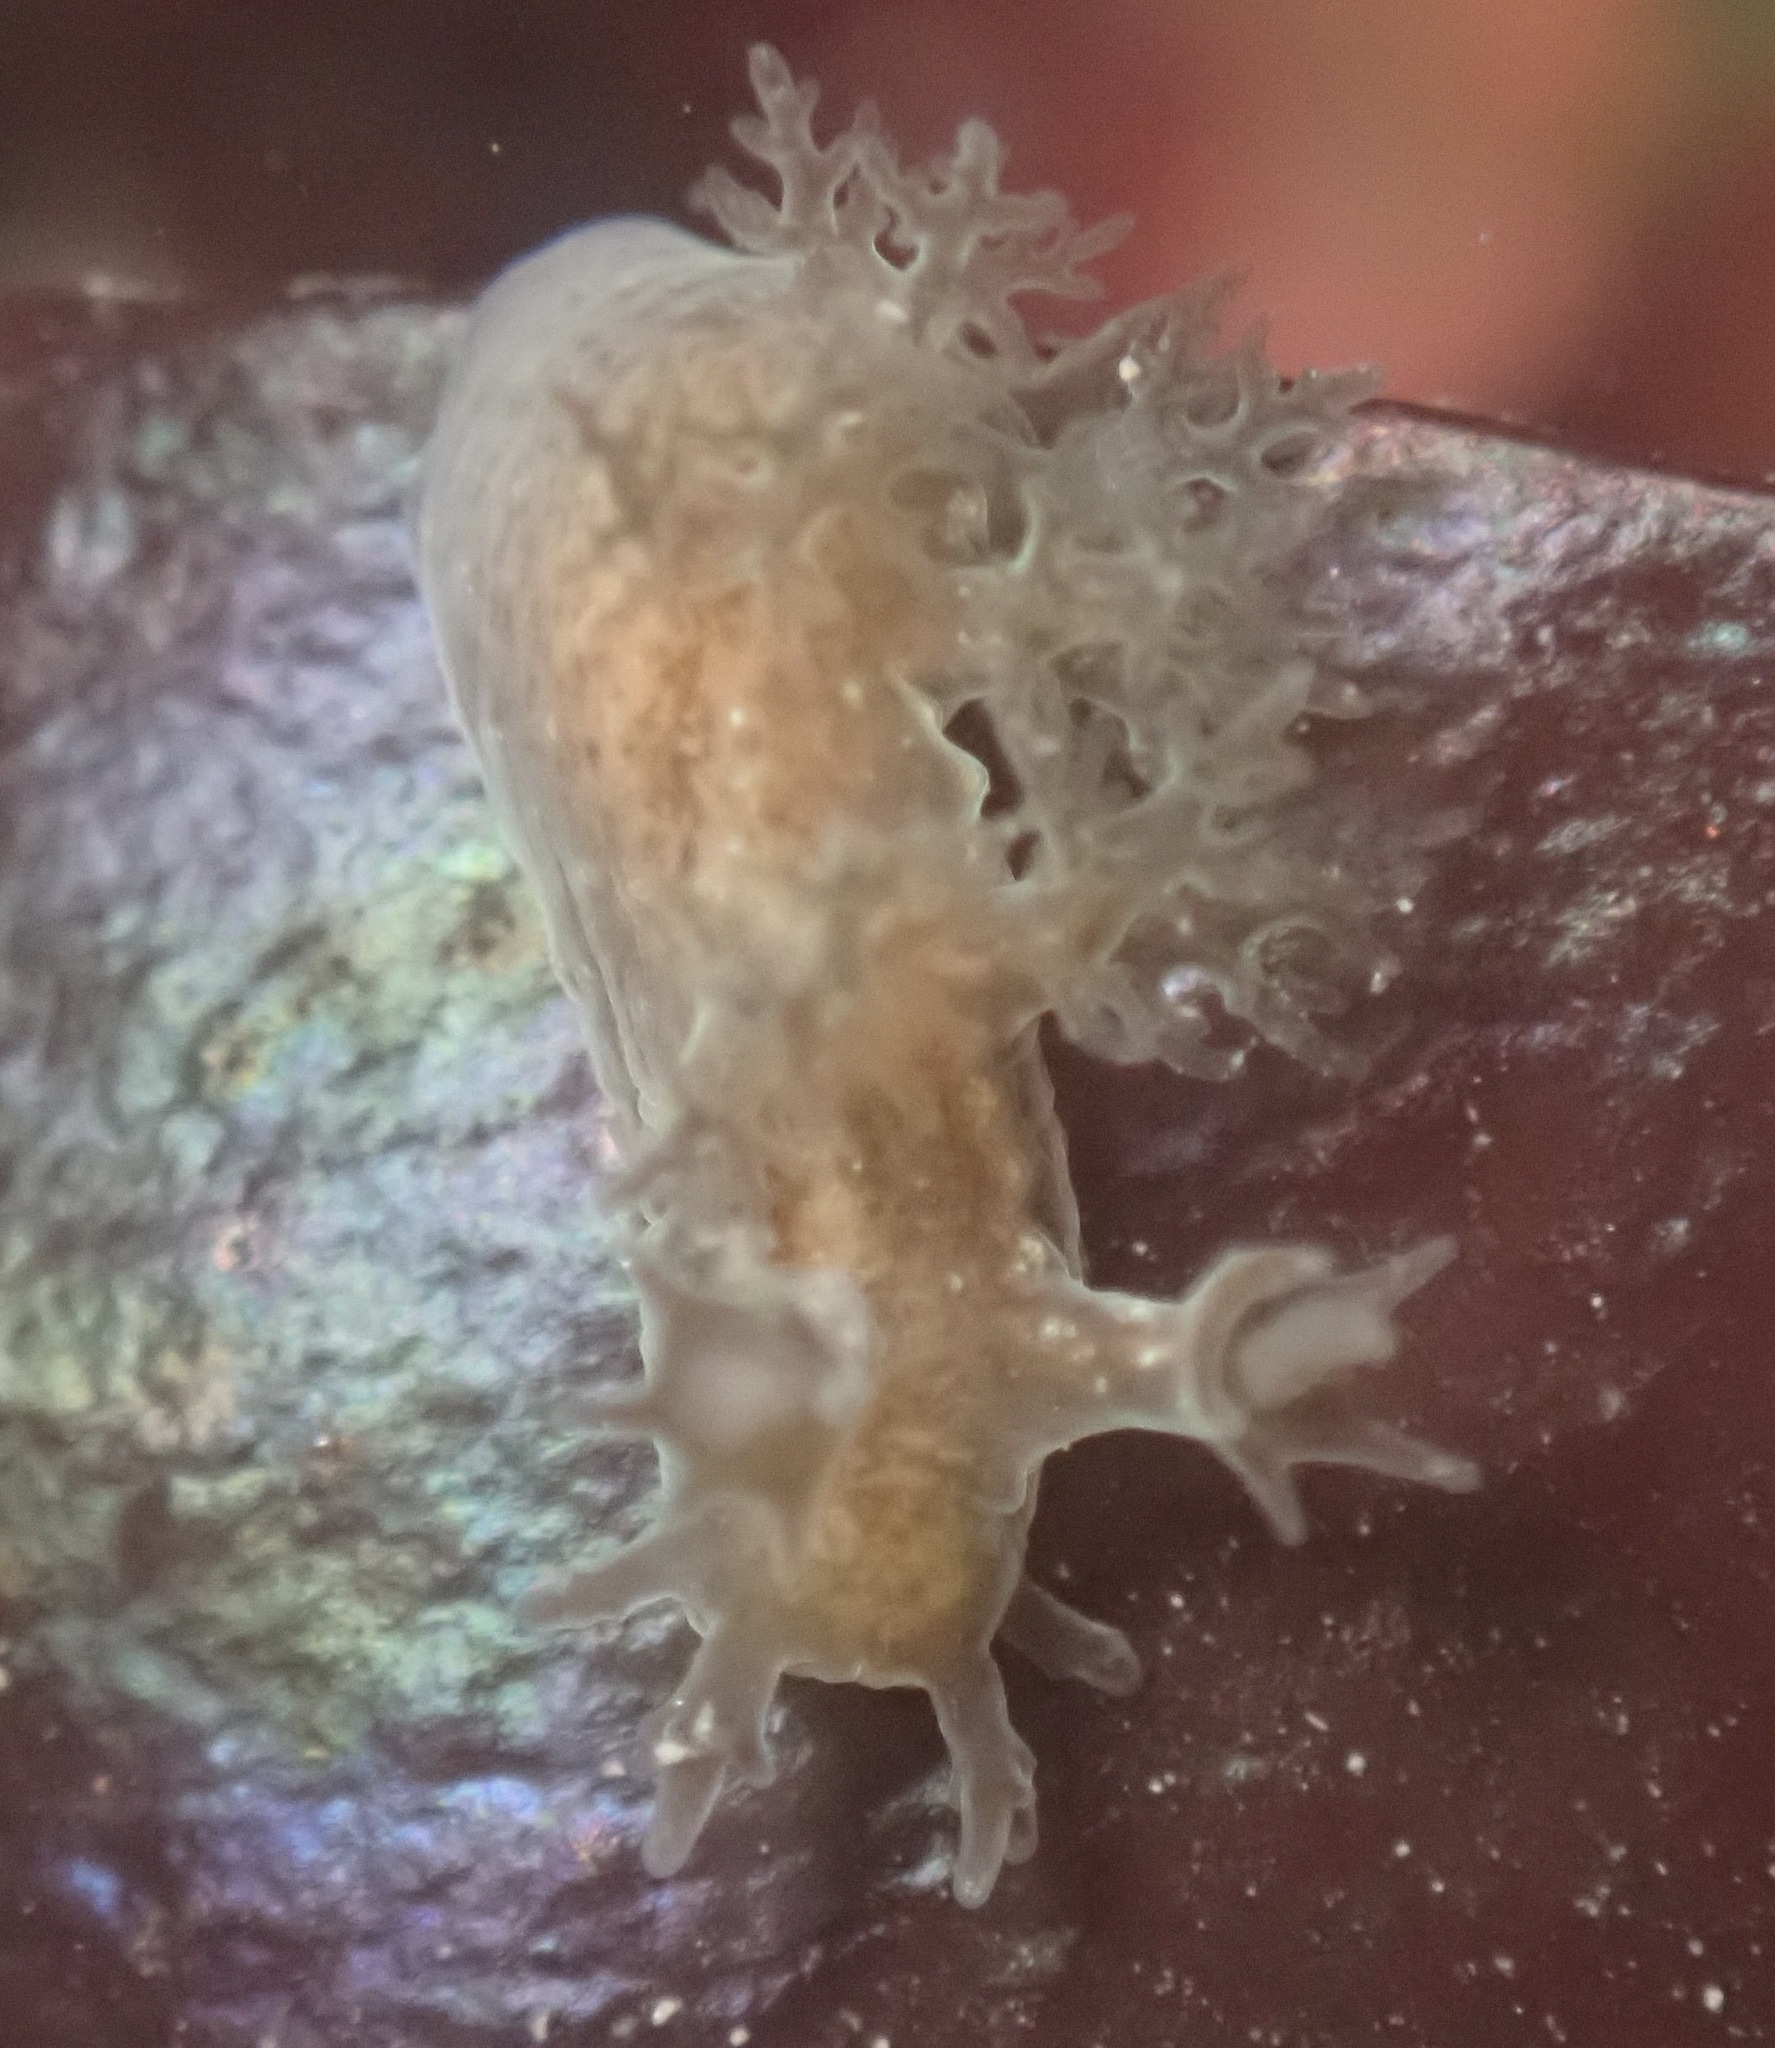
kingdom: Animalia
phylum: Mollusca
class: Gastropoda
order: Nudibranchia
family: Dendronotidae
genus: Dendronotus
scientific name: Dendronotus subramosus
